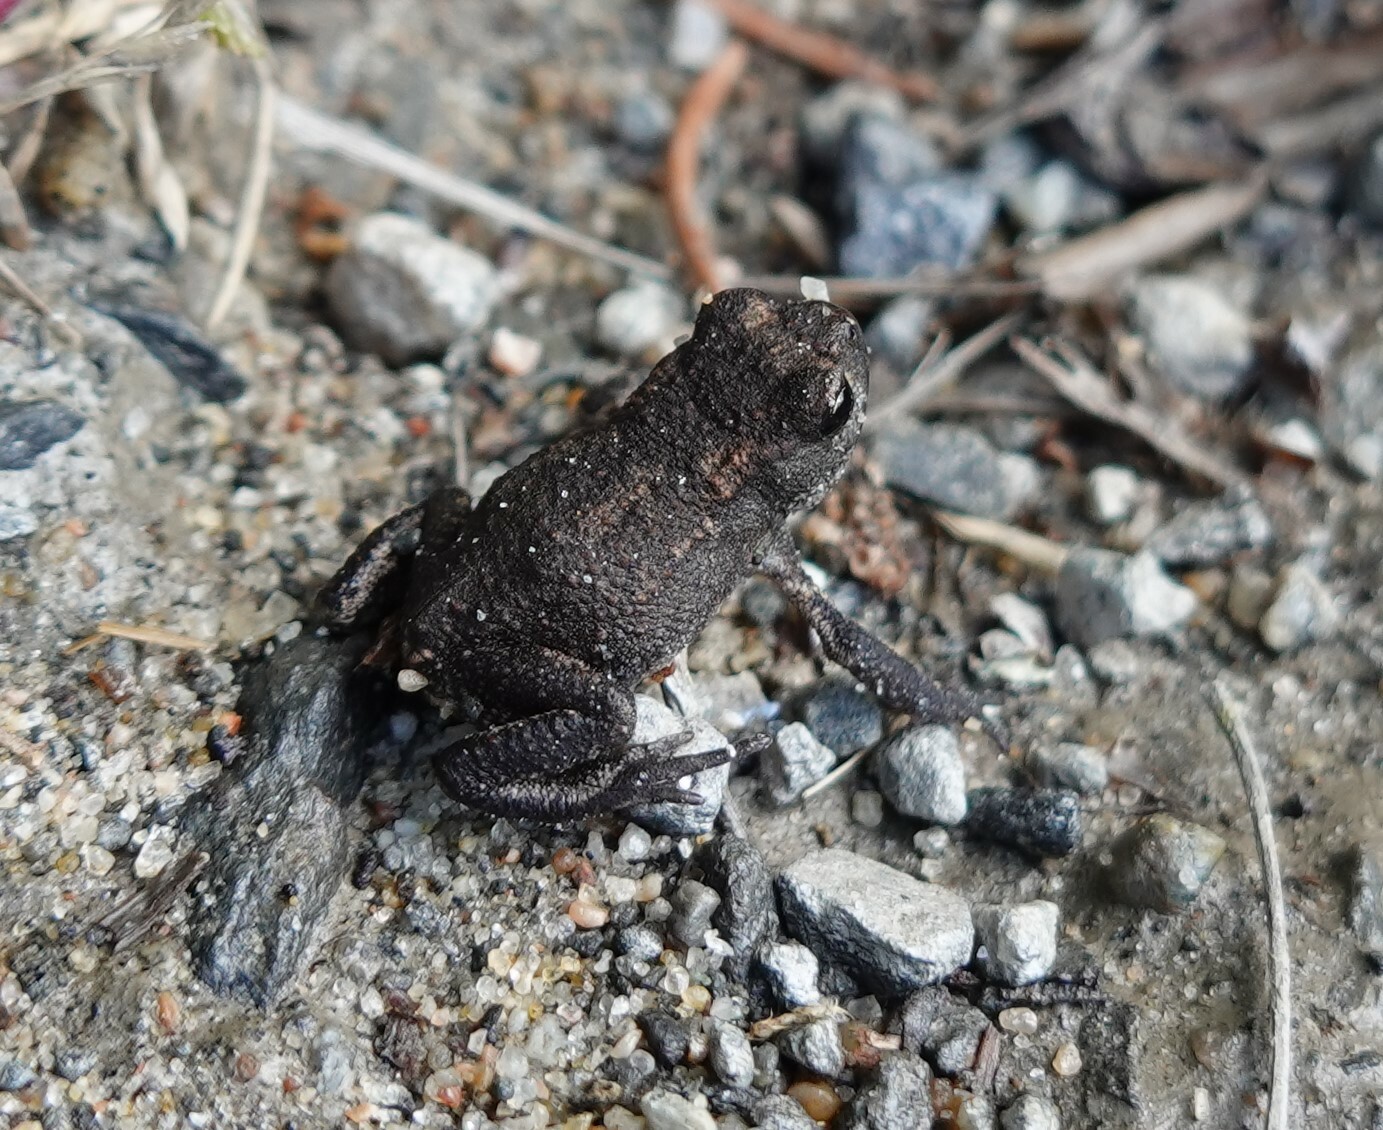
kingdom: Animalia
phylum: Chordata
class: Amphibia
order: Anura
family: Bufonidae
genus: Bufo
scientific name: Bufo bufo
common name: Common toad
